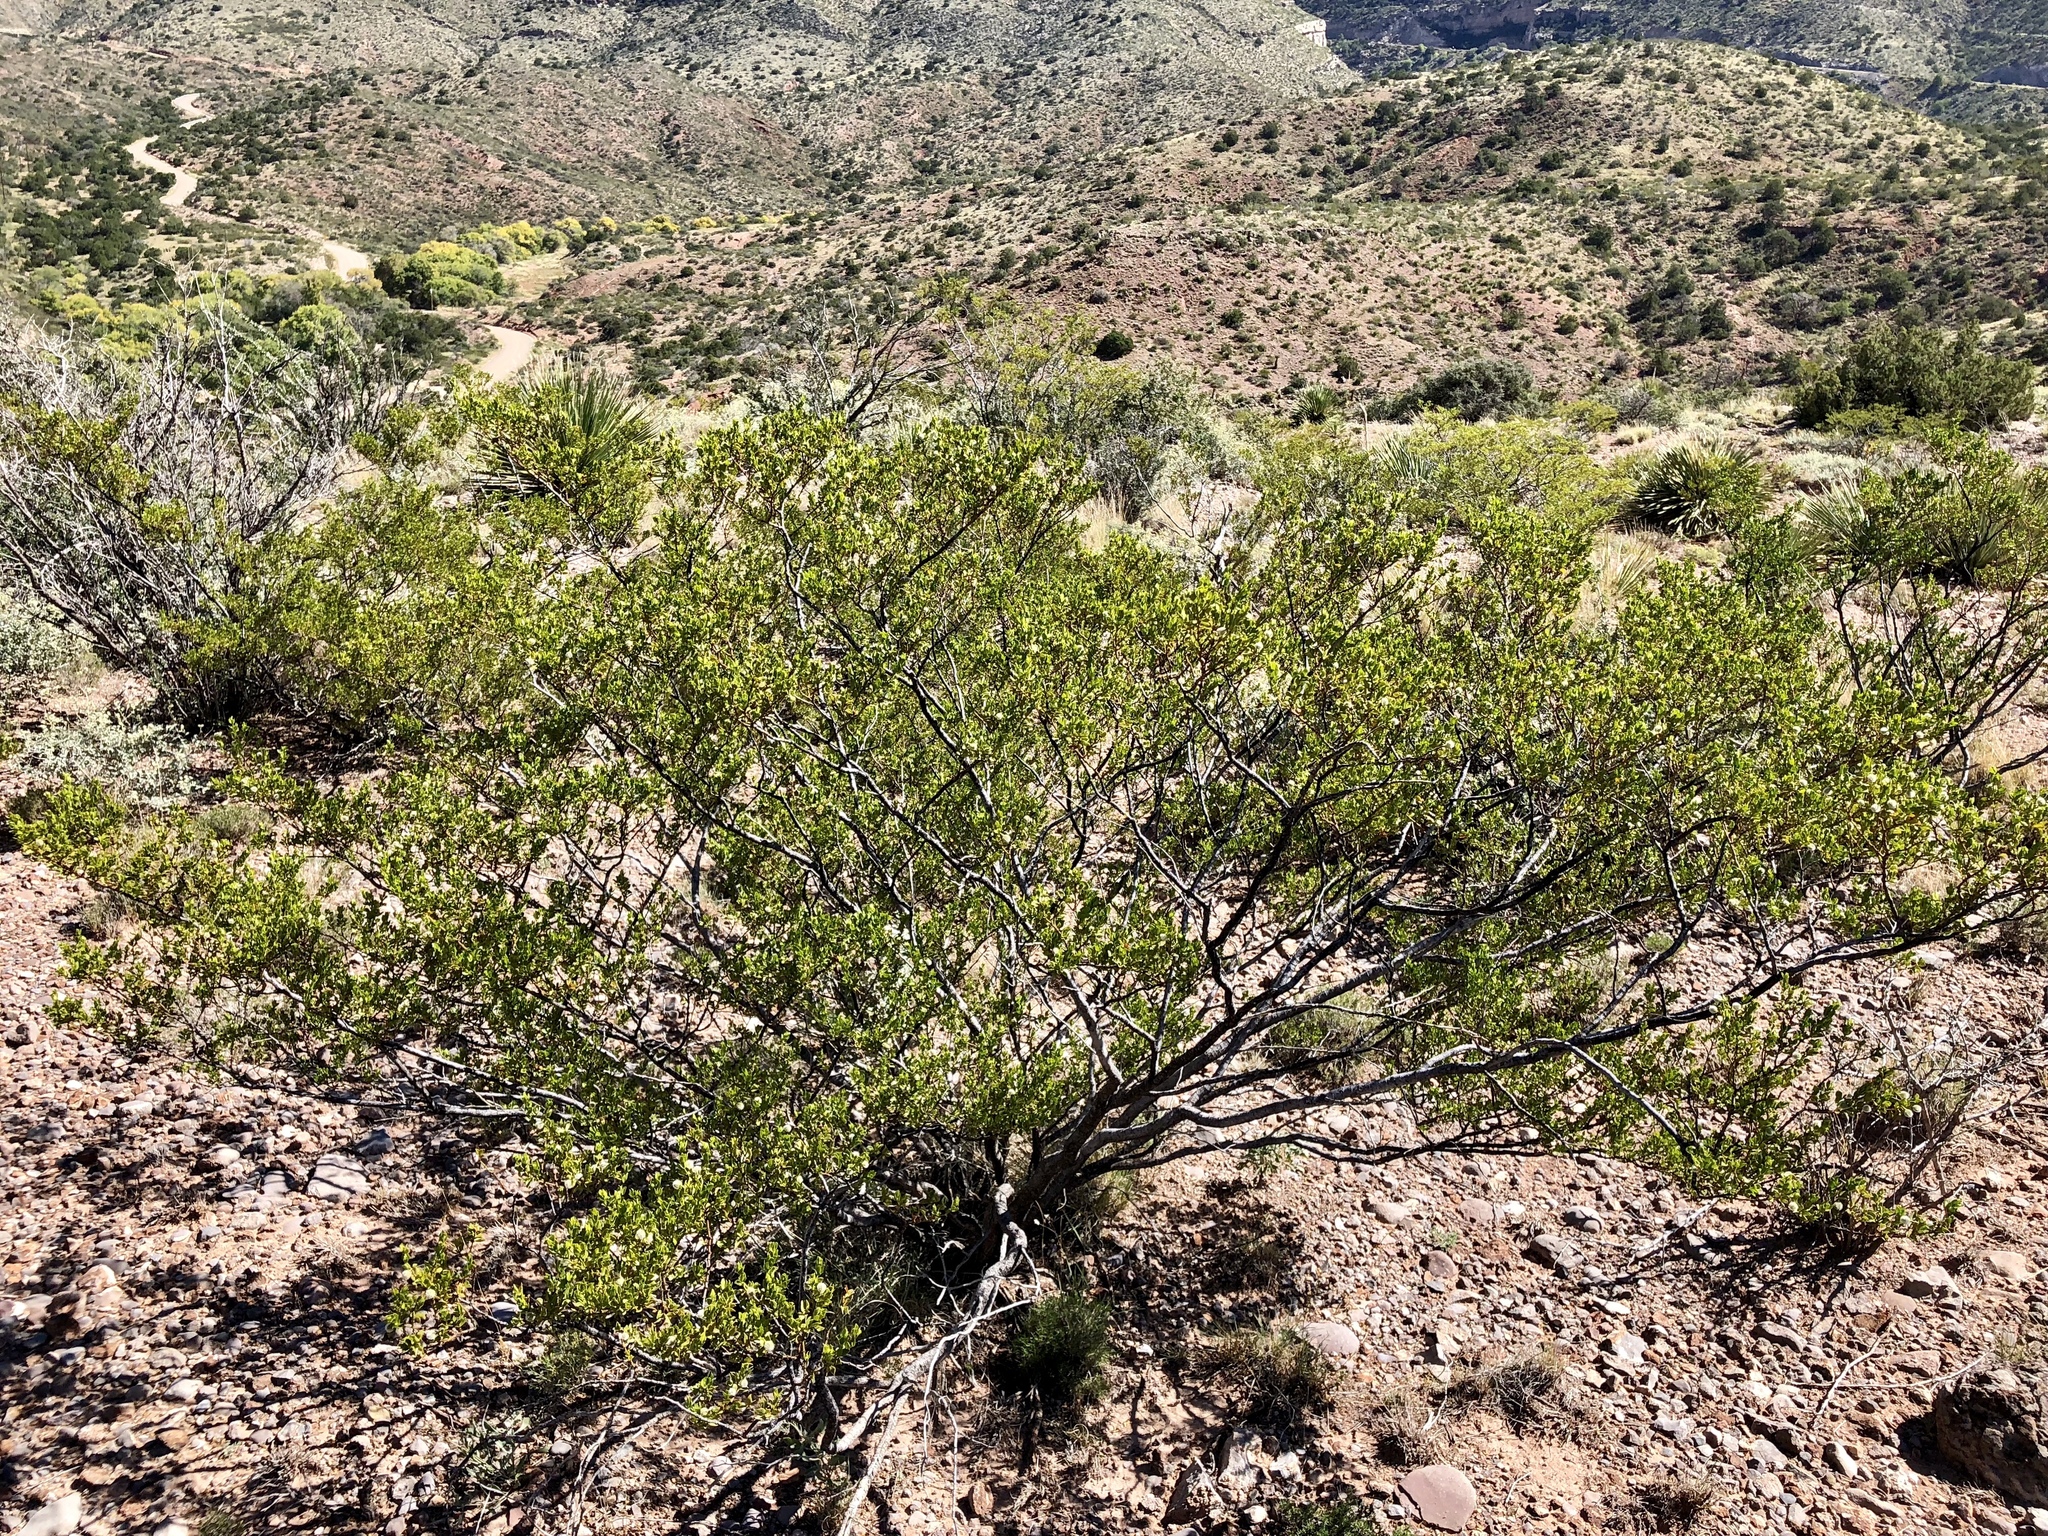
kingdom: Plantae
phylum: Tracheophyta
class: Magnoliopsida
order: Zygophyllales
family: Zygophyllaceae
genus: Larrea
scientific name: Larrea tridentata
